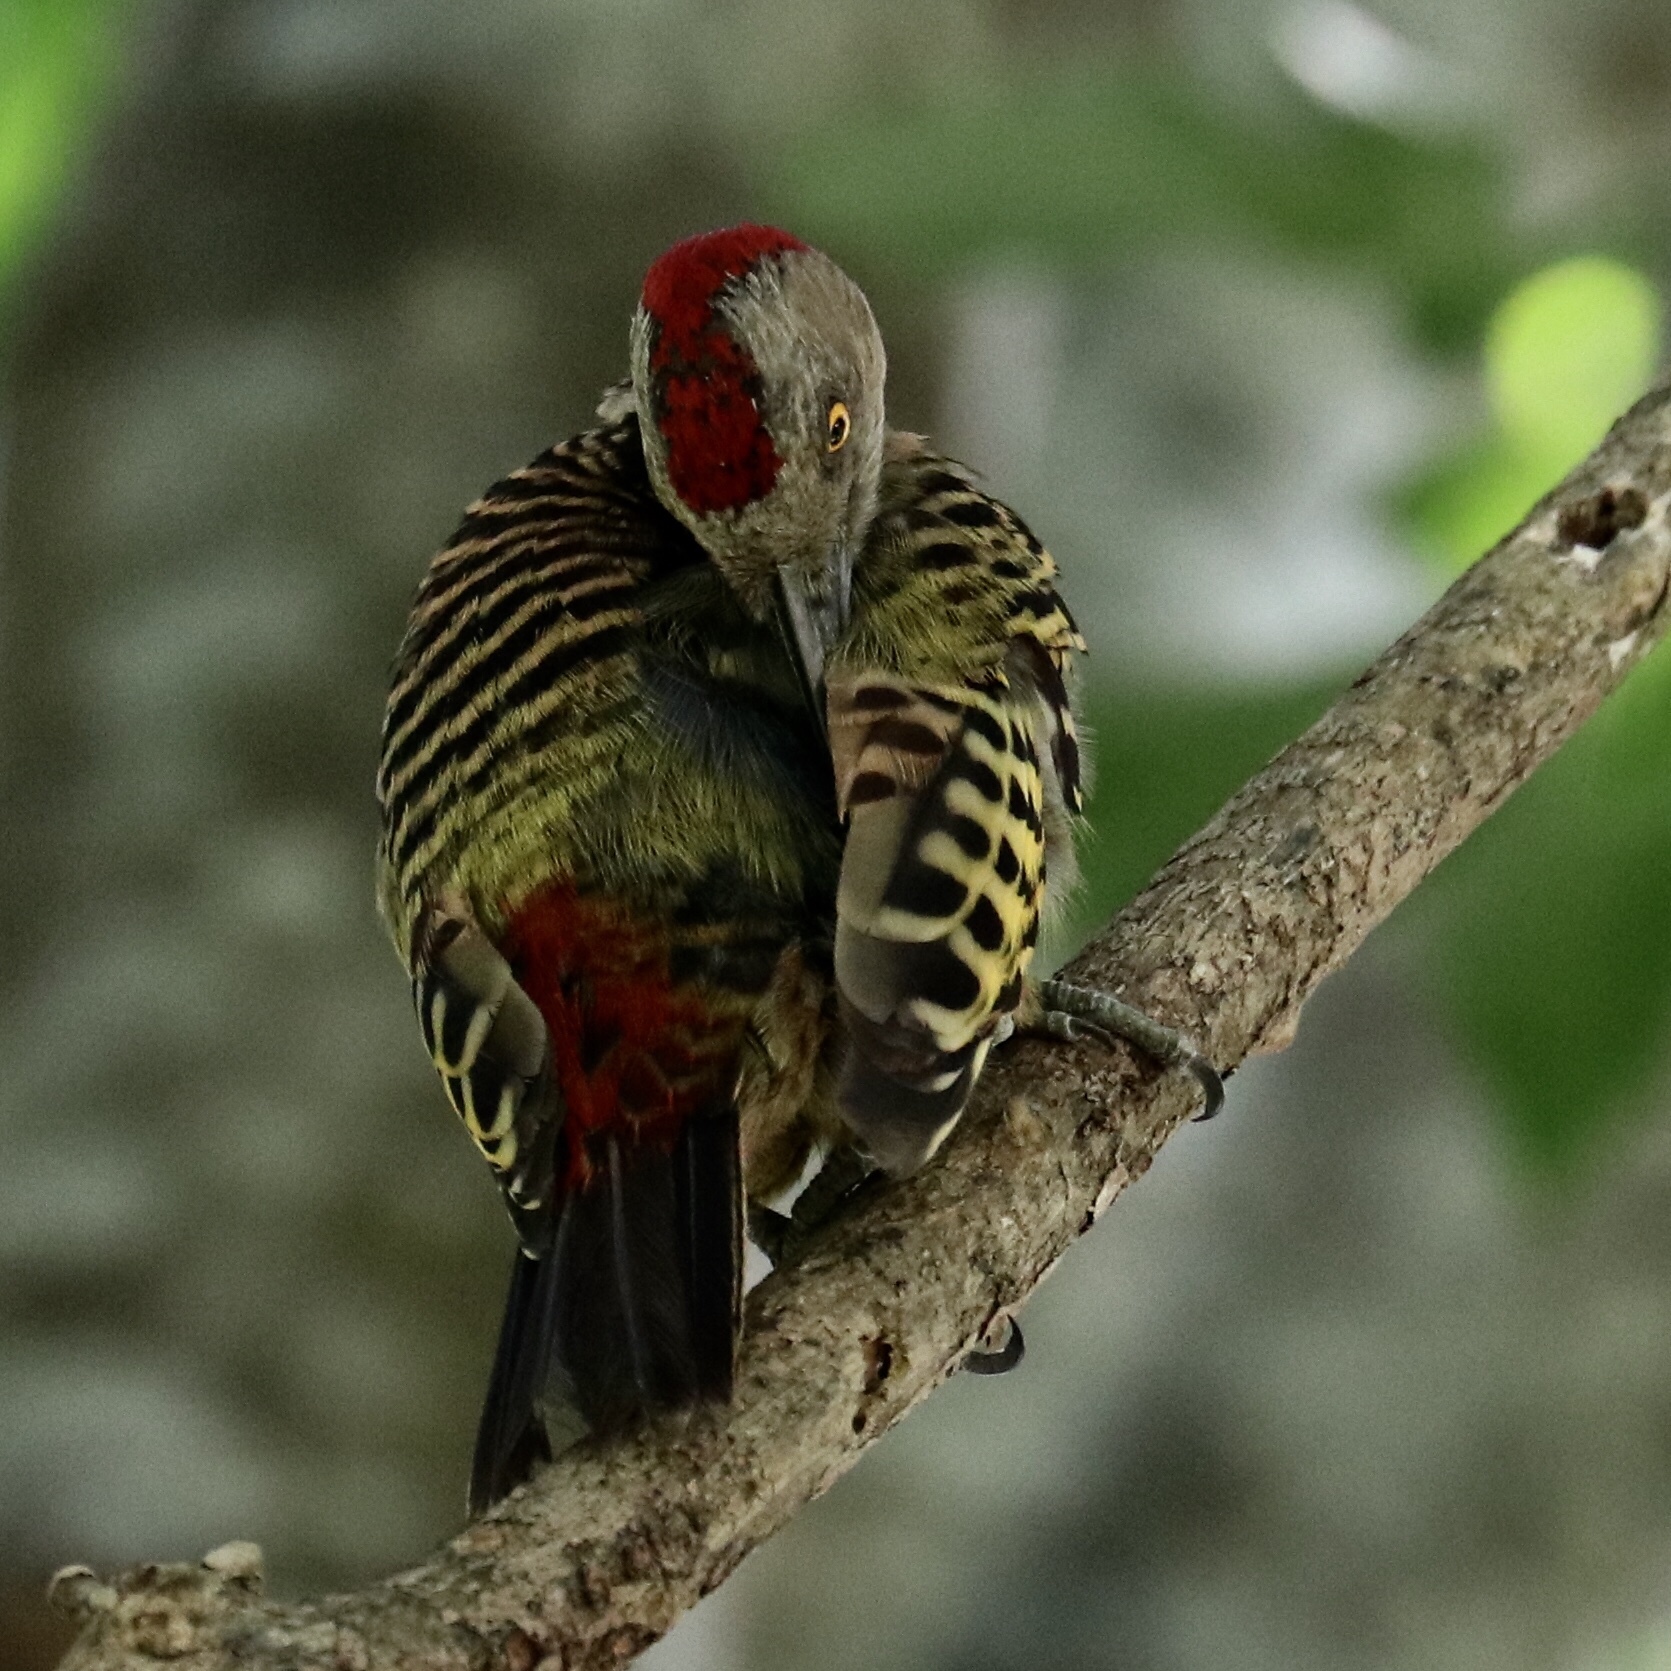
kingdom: Animalia
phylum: Chordata
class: Aves
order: Piciformes
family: Picidae
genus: Melanerpes
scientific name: Melanerpes striatus
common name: Hispaniolan woodpecker
